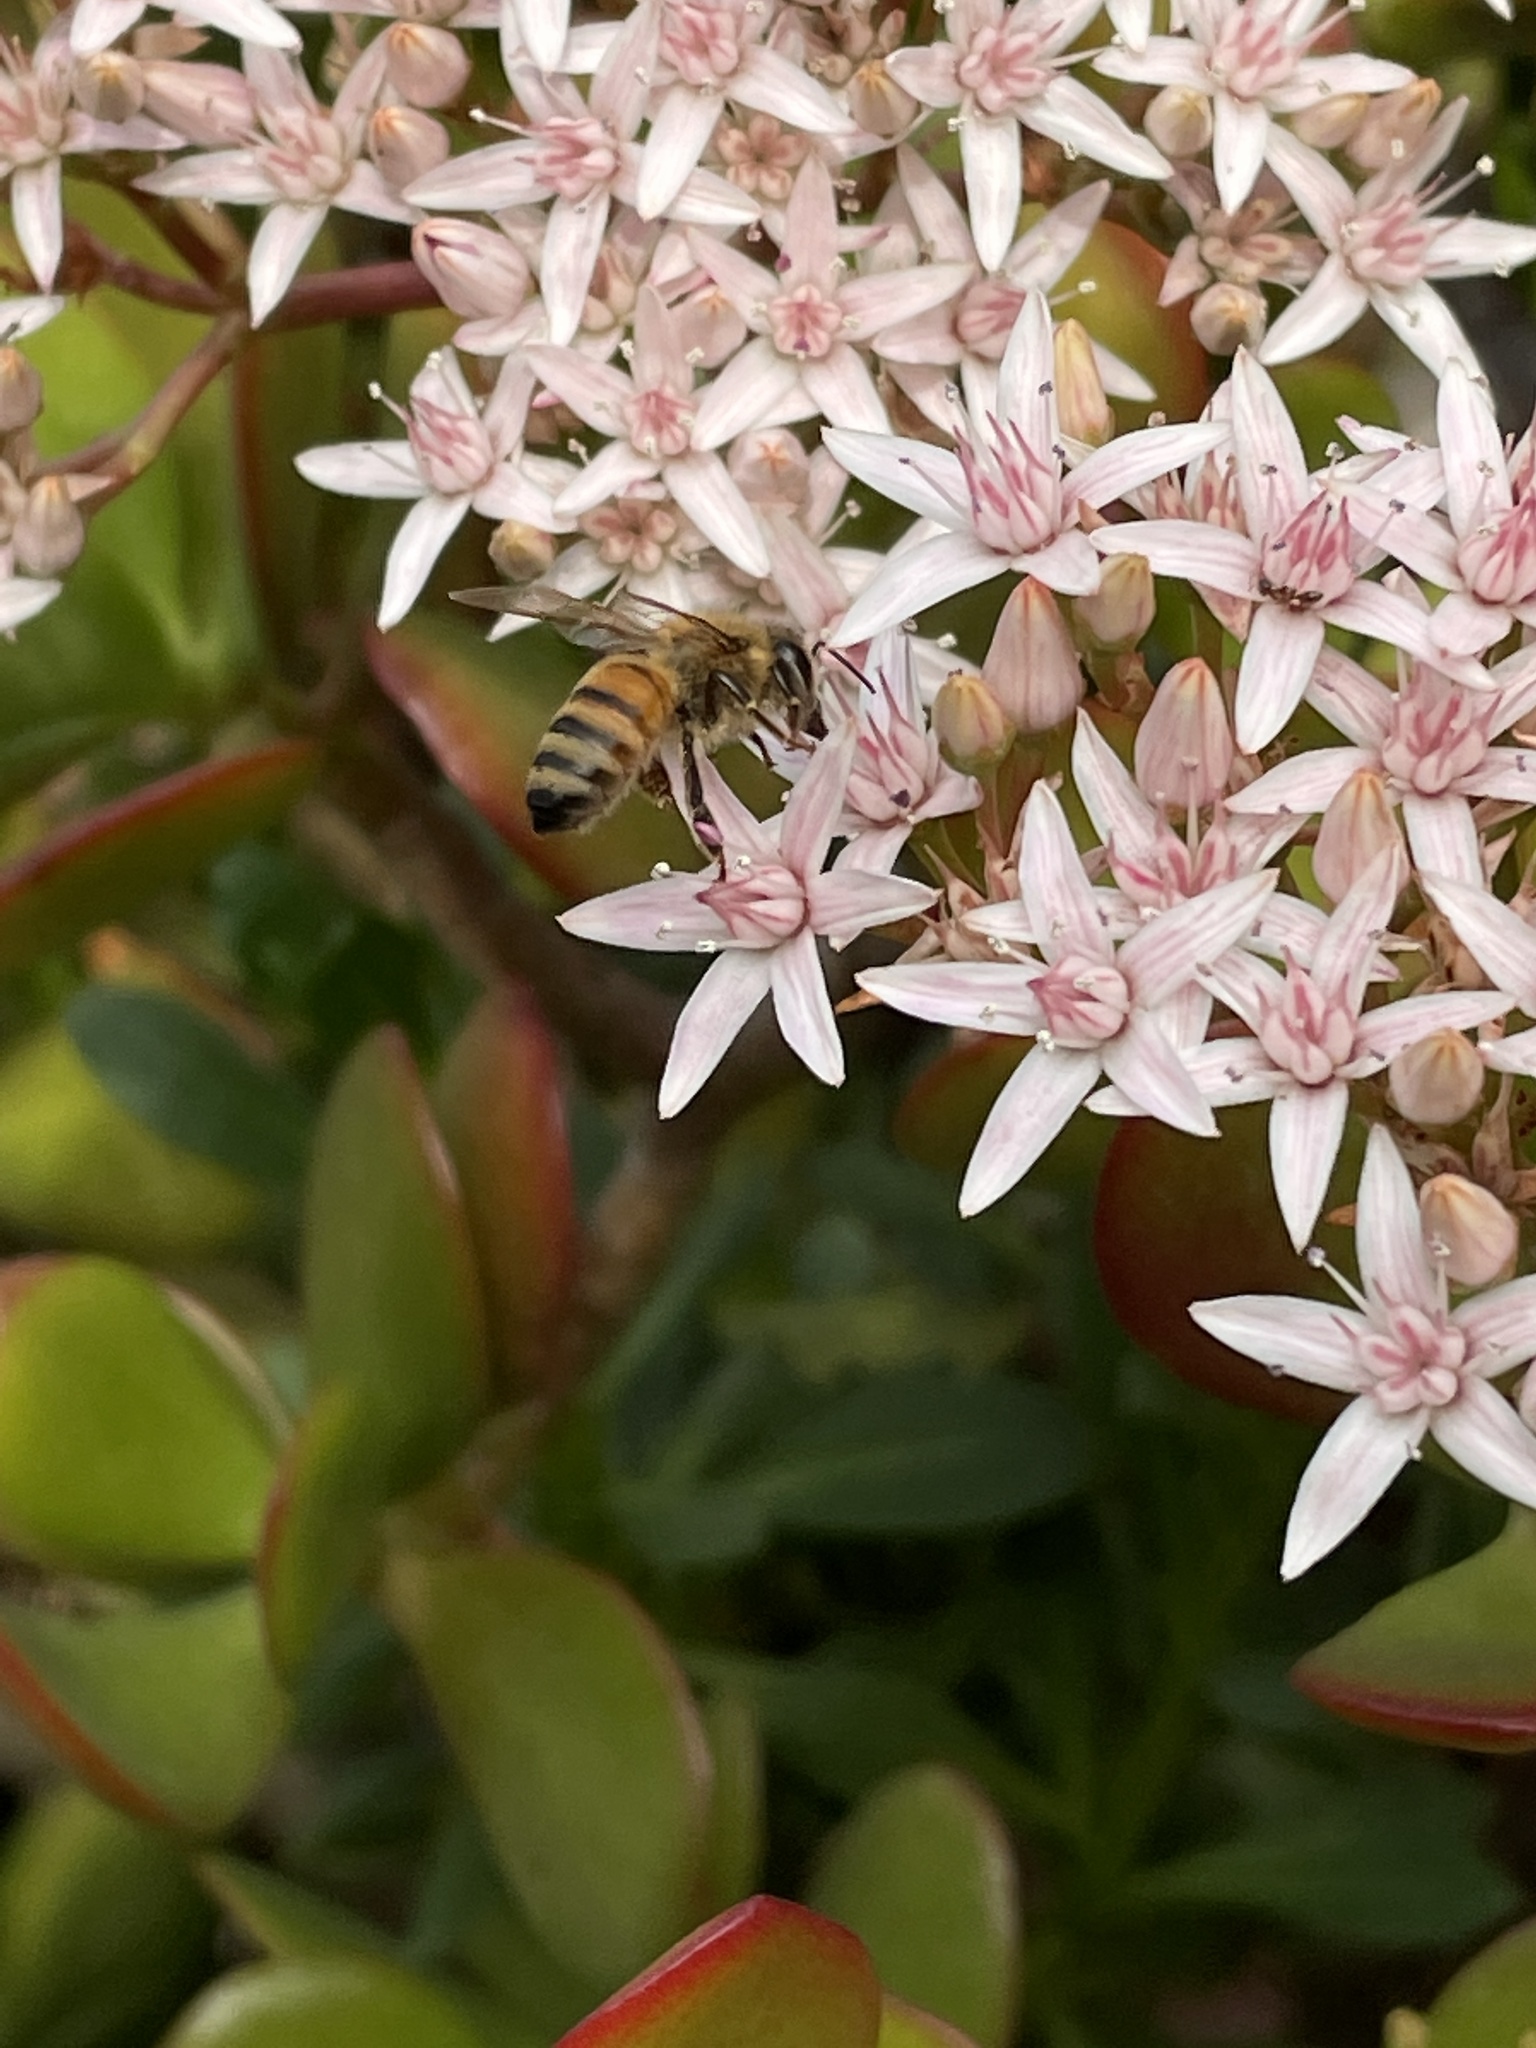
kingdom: Animalia
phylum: Arthropoda
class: Insecta
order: Hymenoptera
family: Apidae
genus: Apis
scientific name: Apis mellifera
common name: Honey bee
